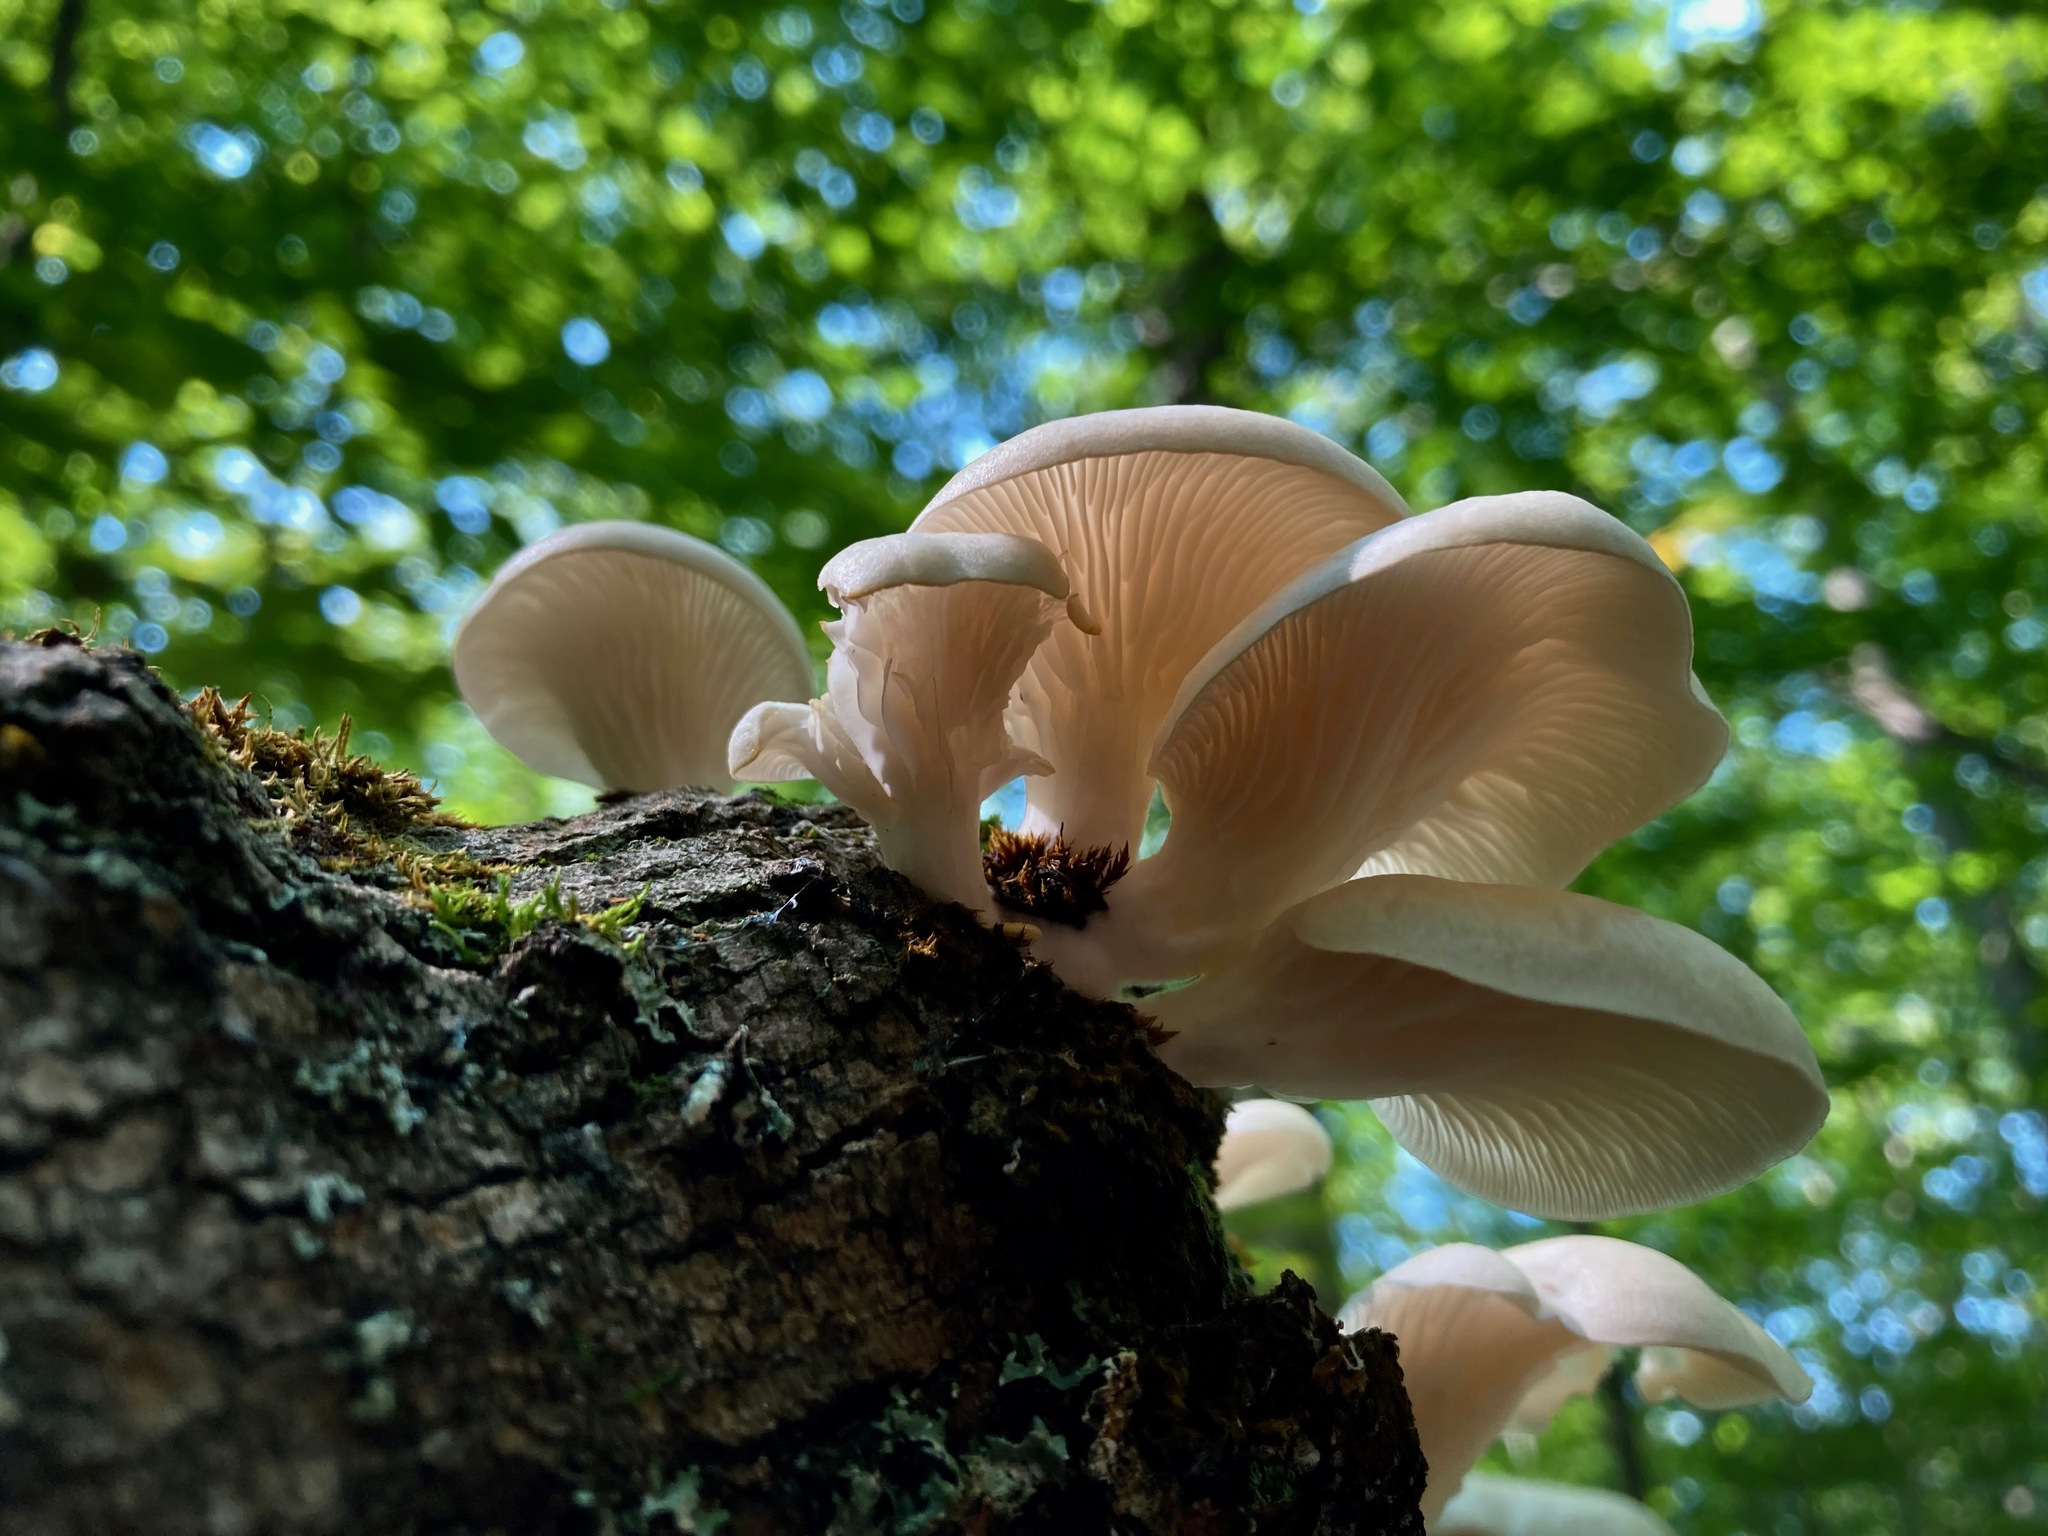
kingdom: Fungi
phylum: Basidiomycota
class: Agaricomycetes
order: Agaricales
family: Pleurotaceae
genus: Pleurotus
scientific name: Pleurotus pulmonarius
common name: Pale oyster
